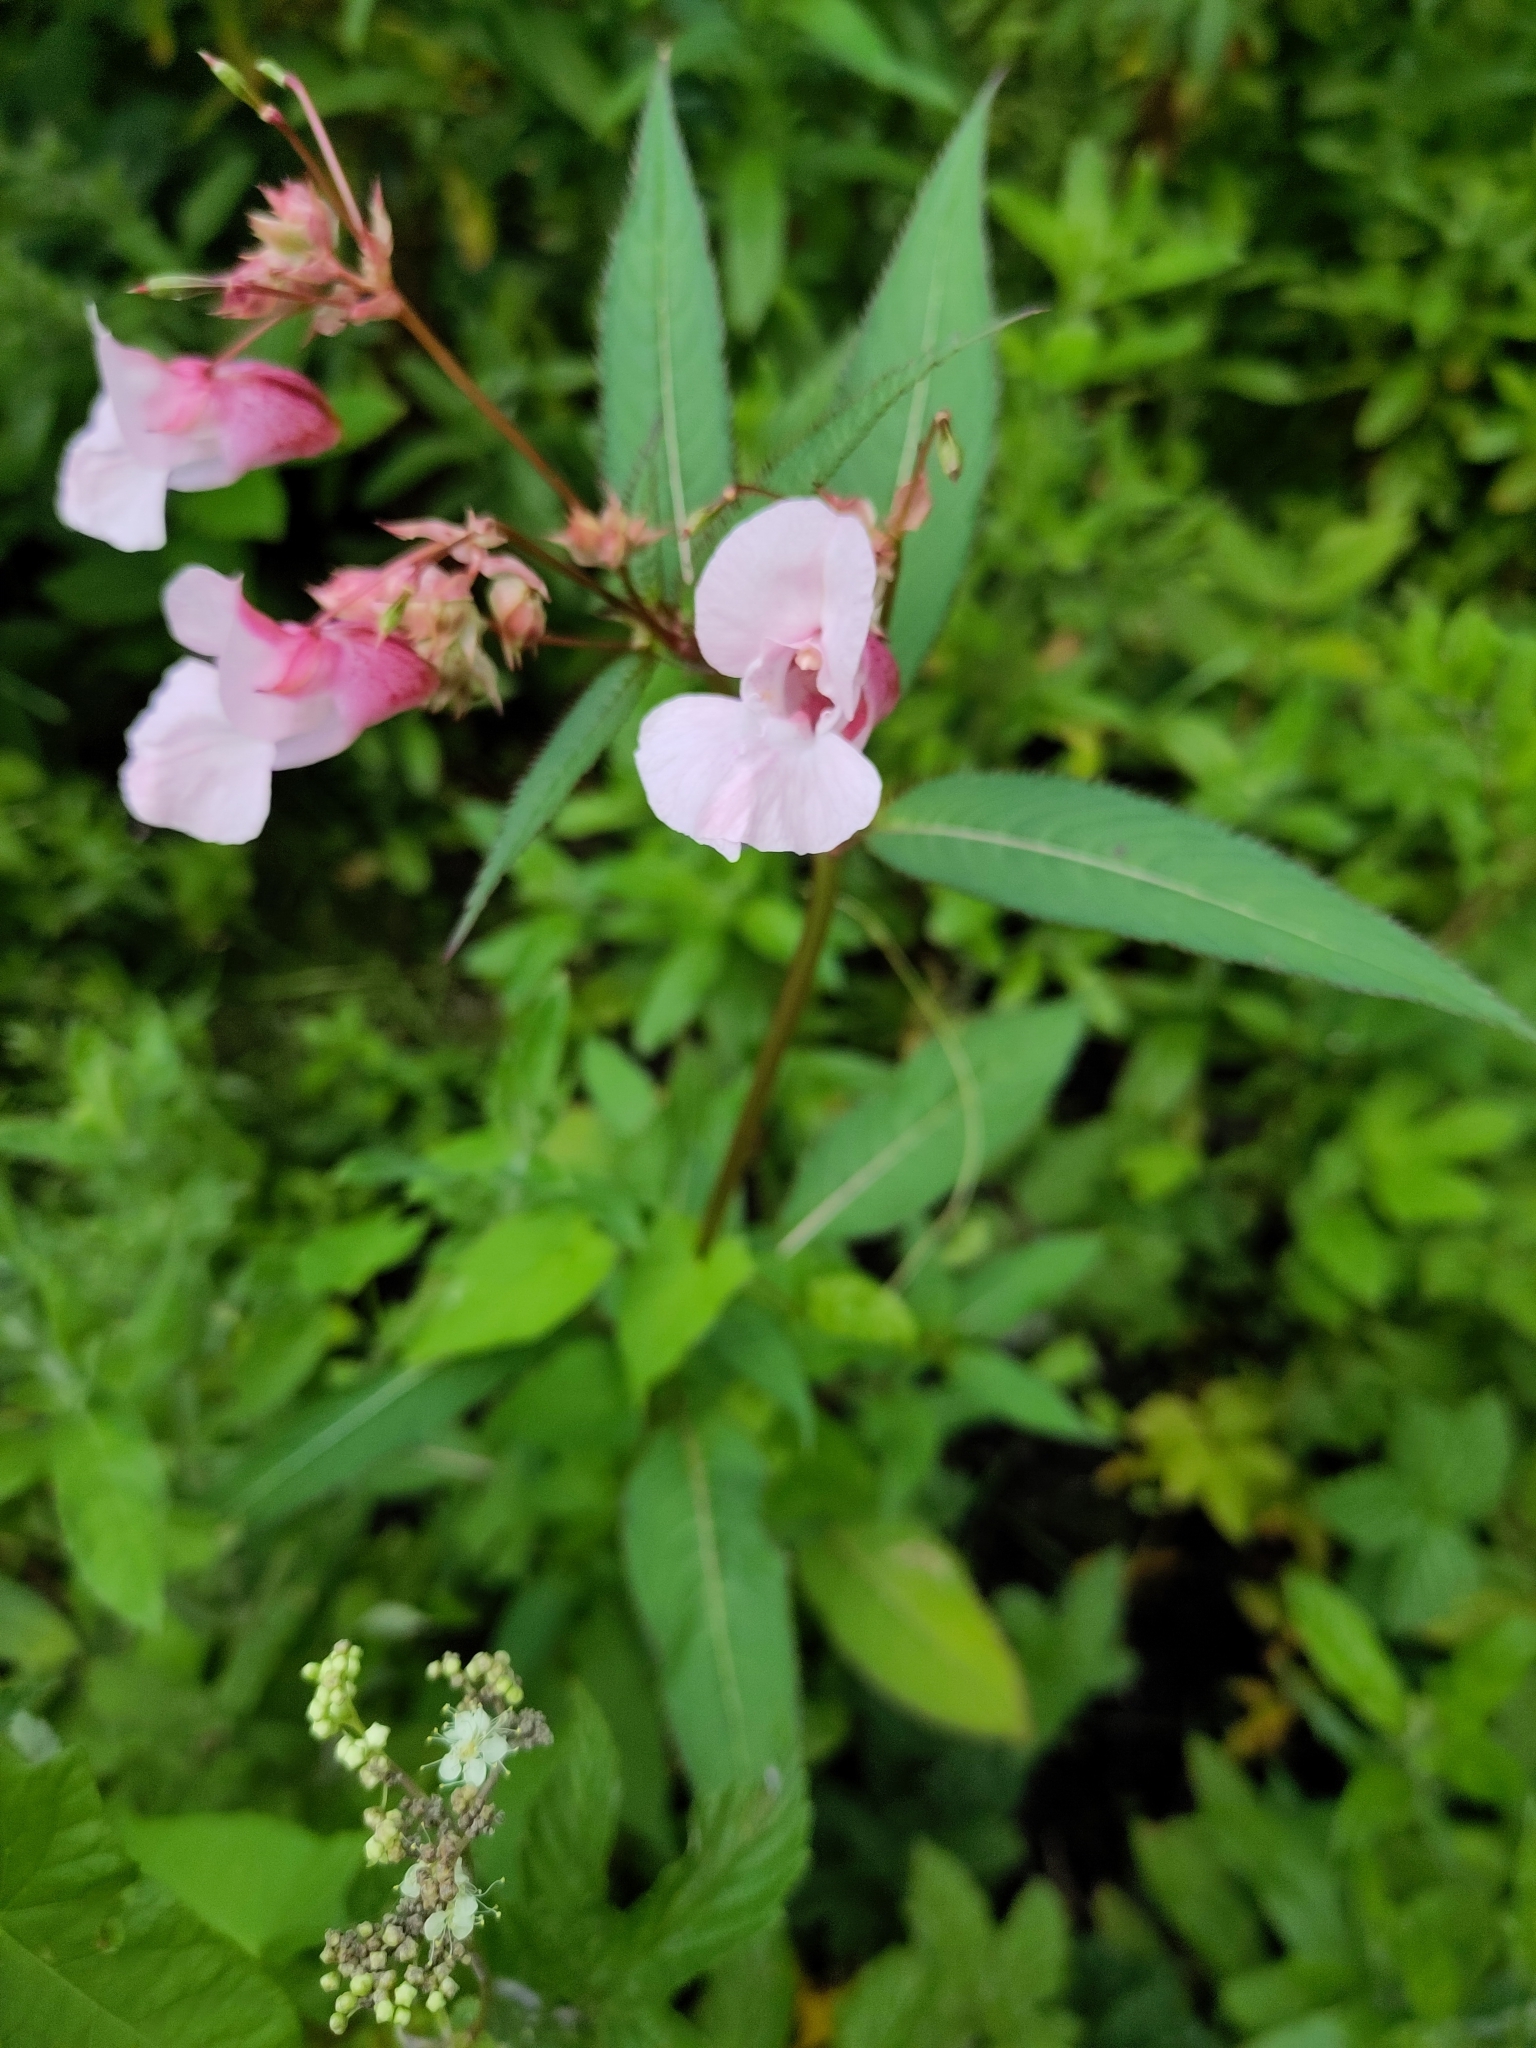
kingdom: Plantae
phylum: Tracheophyta
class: Magnoliopsida
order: Ericales
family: Balsaminaceae
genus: Impatiens
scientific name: Impatiens glandulifera
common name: Himalayan balsam
